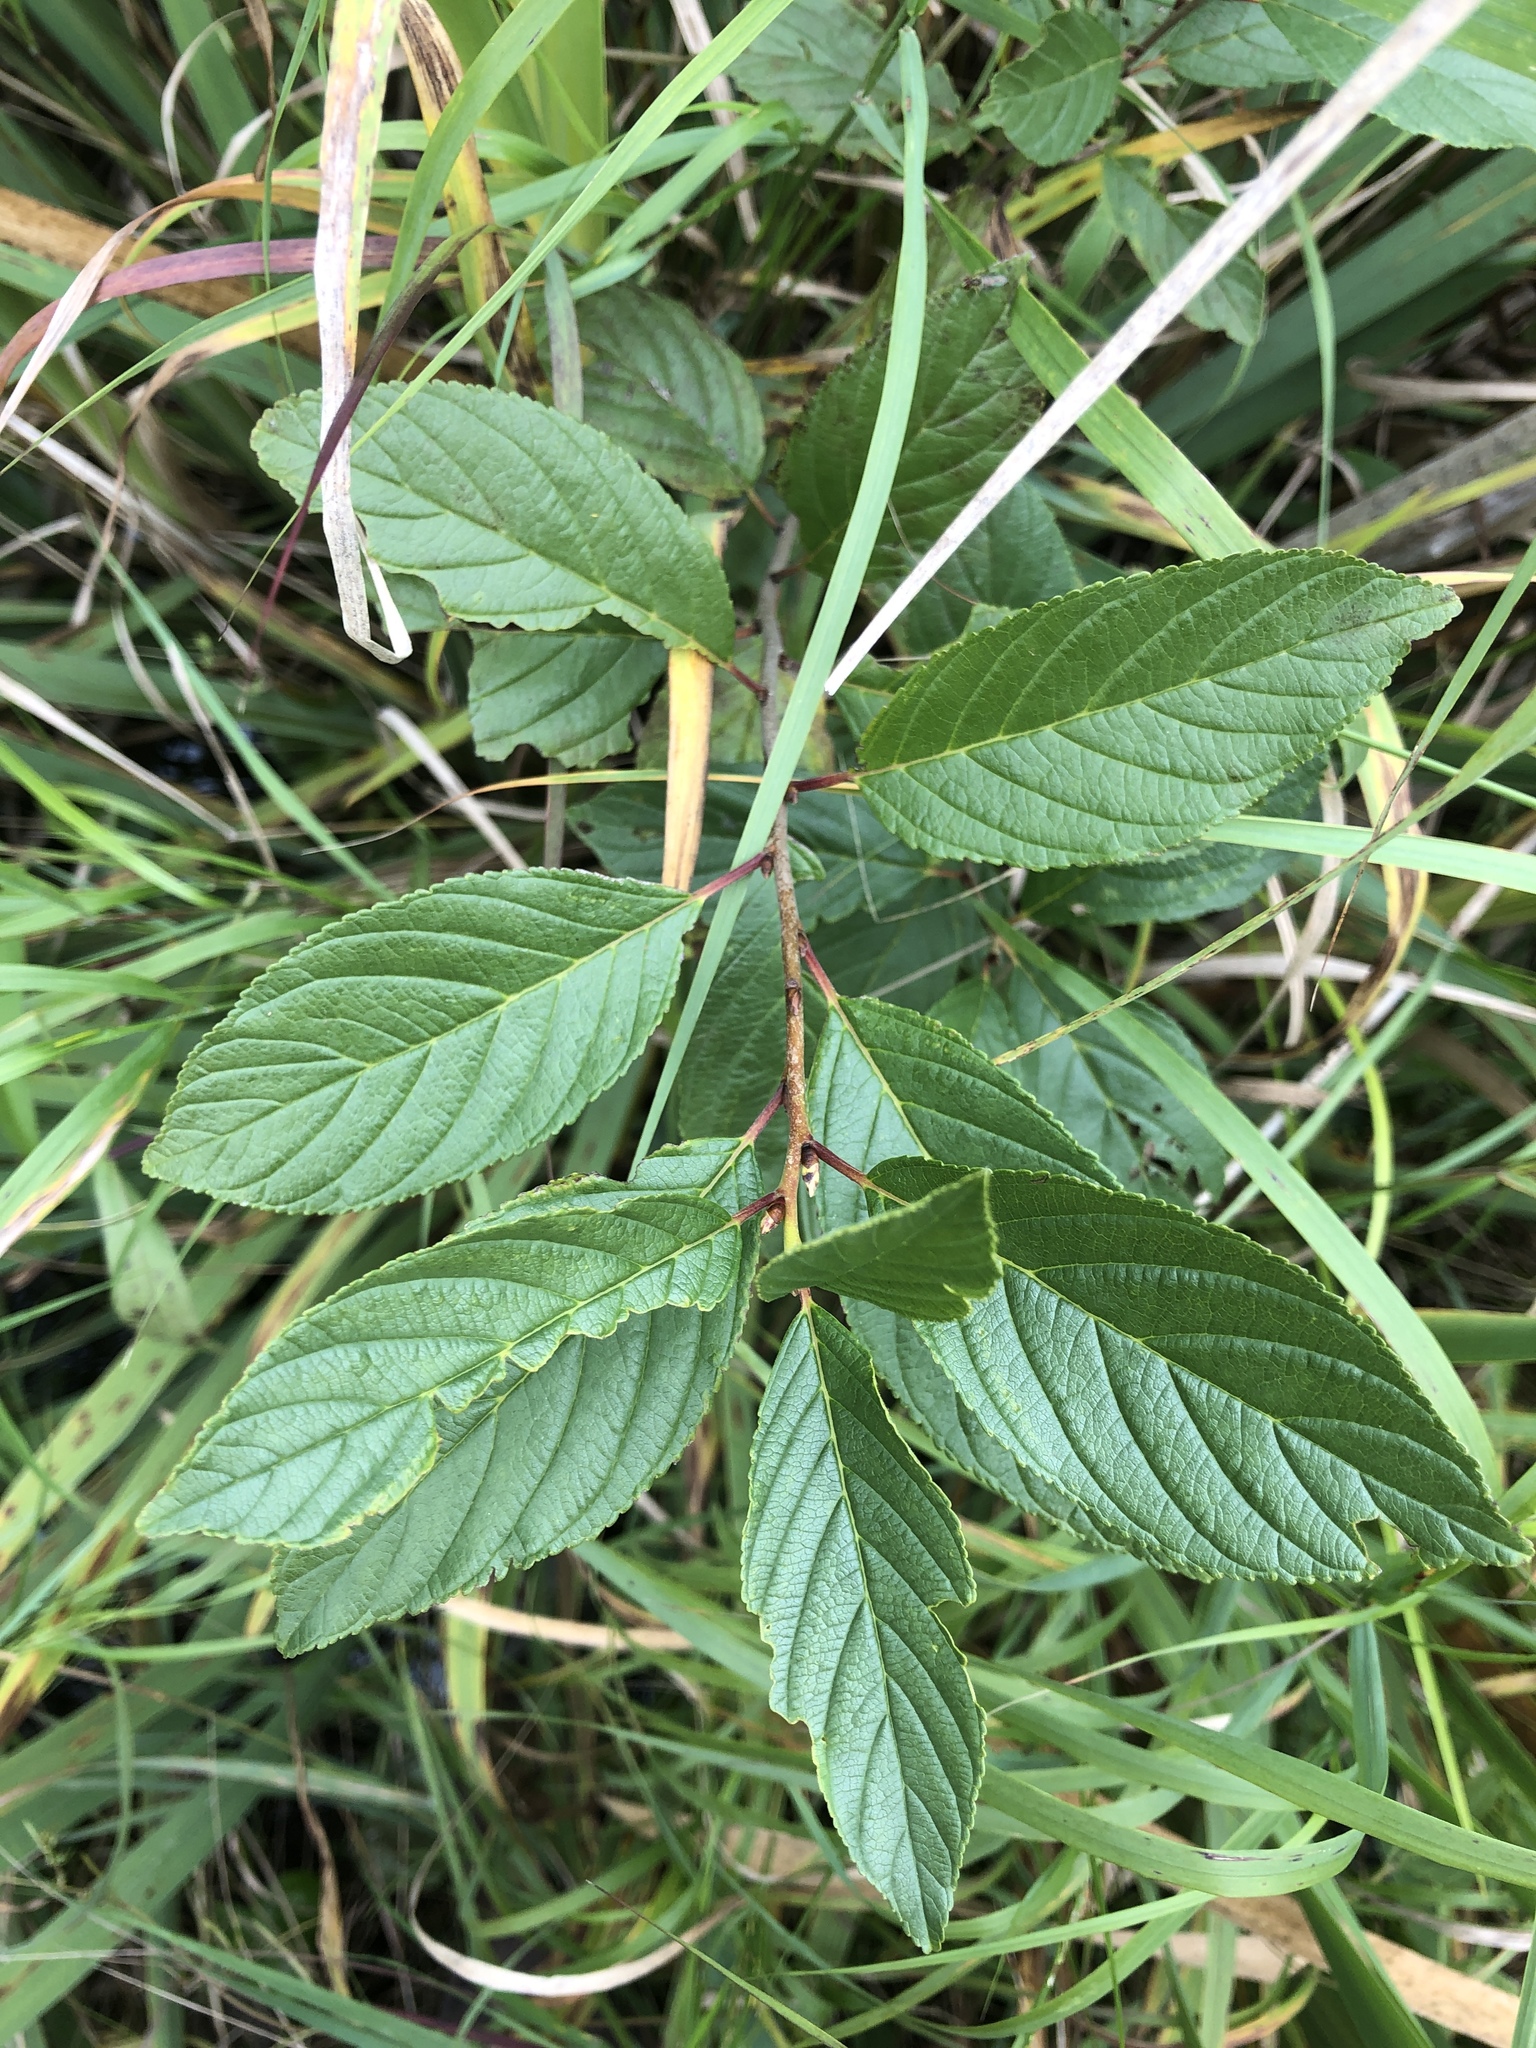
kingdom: Plantae
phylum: Tracheophyta
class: Magnoliopsida
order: Rosales
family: Rhamnaceae
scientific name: Rhamnaceae
